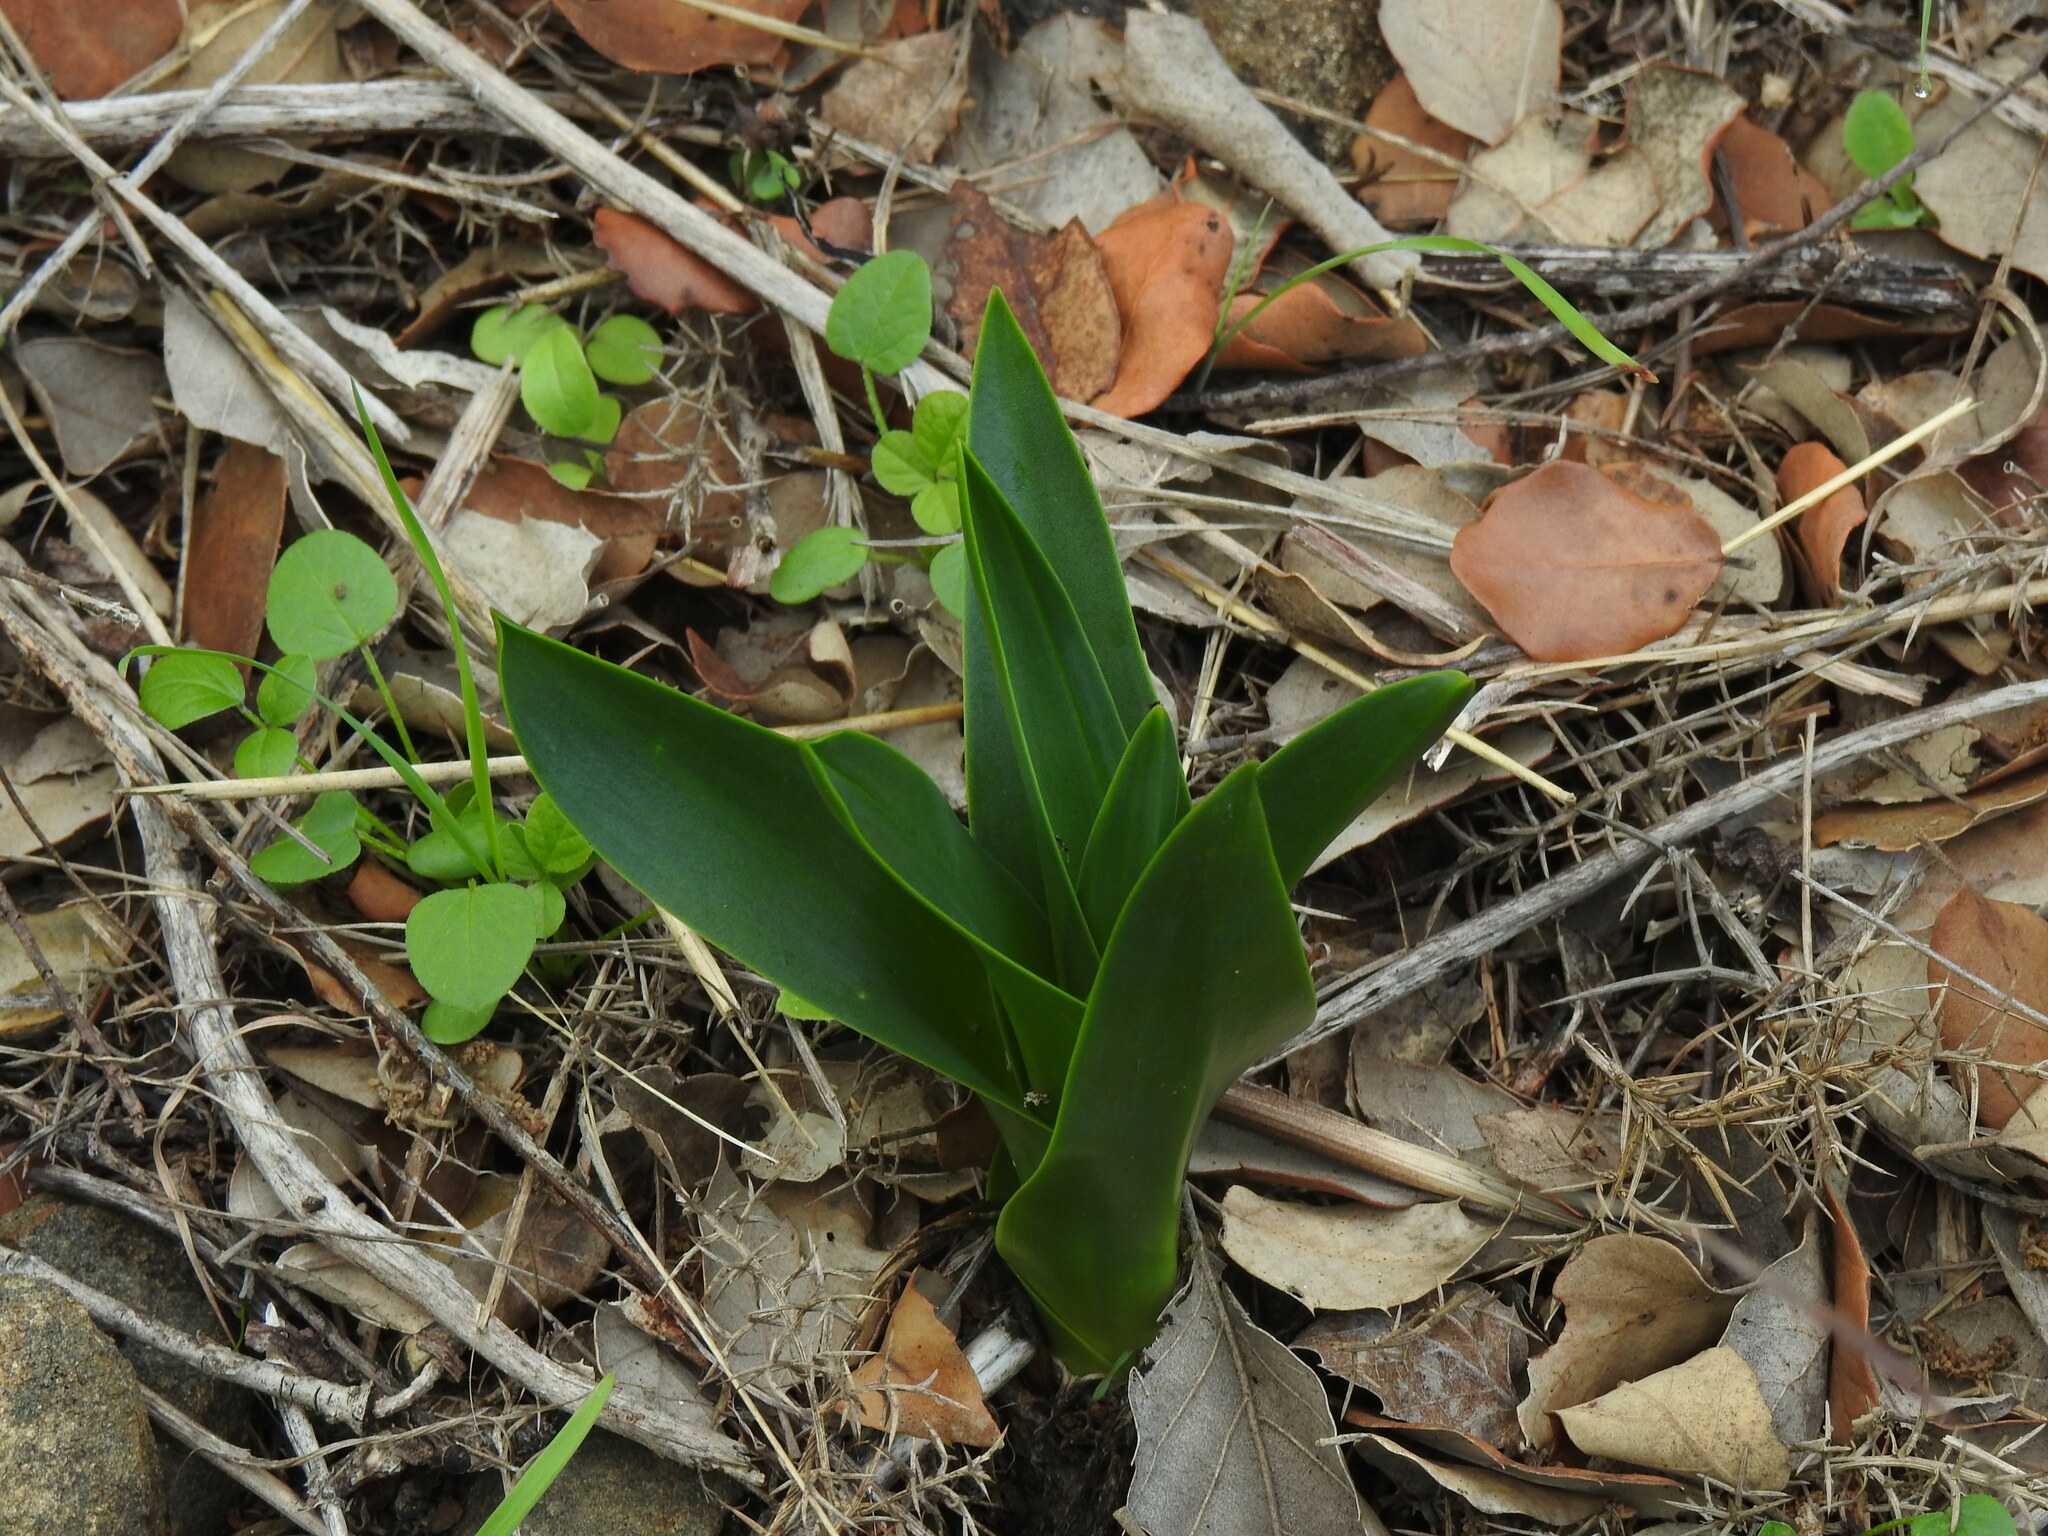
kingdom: Plantae
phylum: Tracheophyta
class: Liliopsida
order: Asparagales
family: Asparagaceae
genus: Drimia
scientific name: Drimia maritima
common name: Maritime squill
